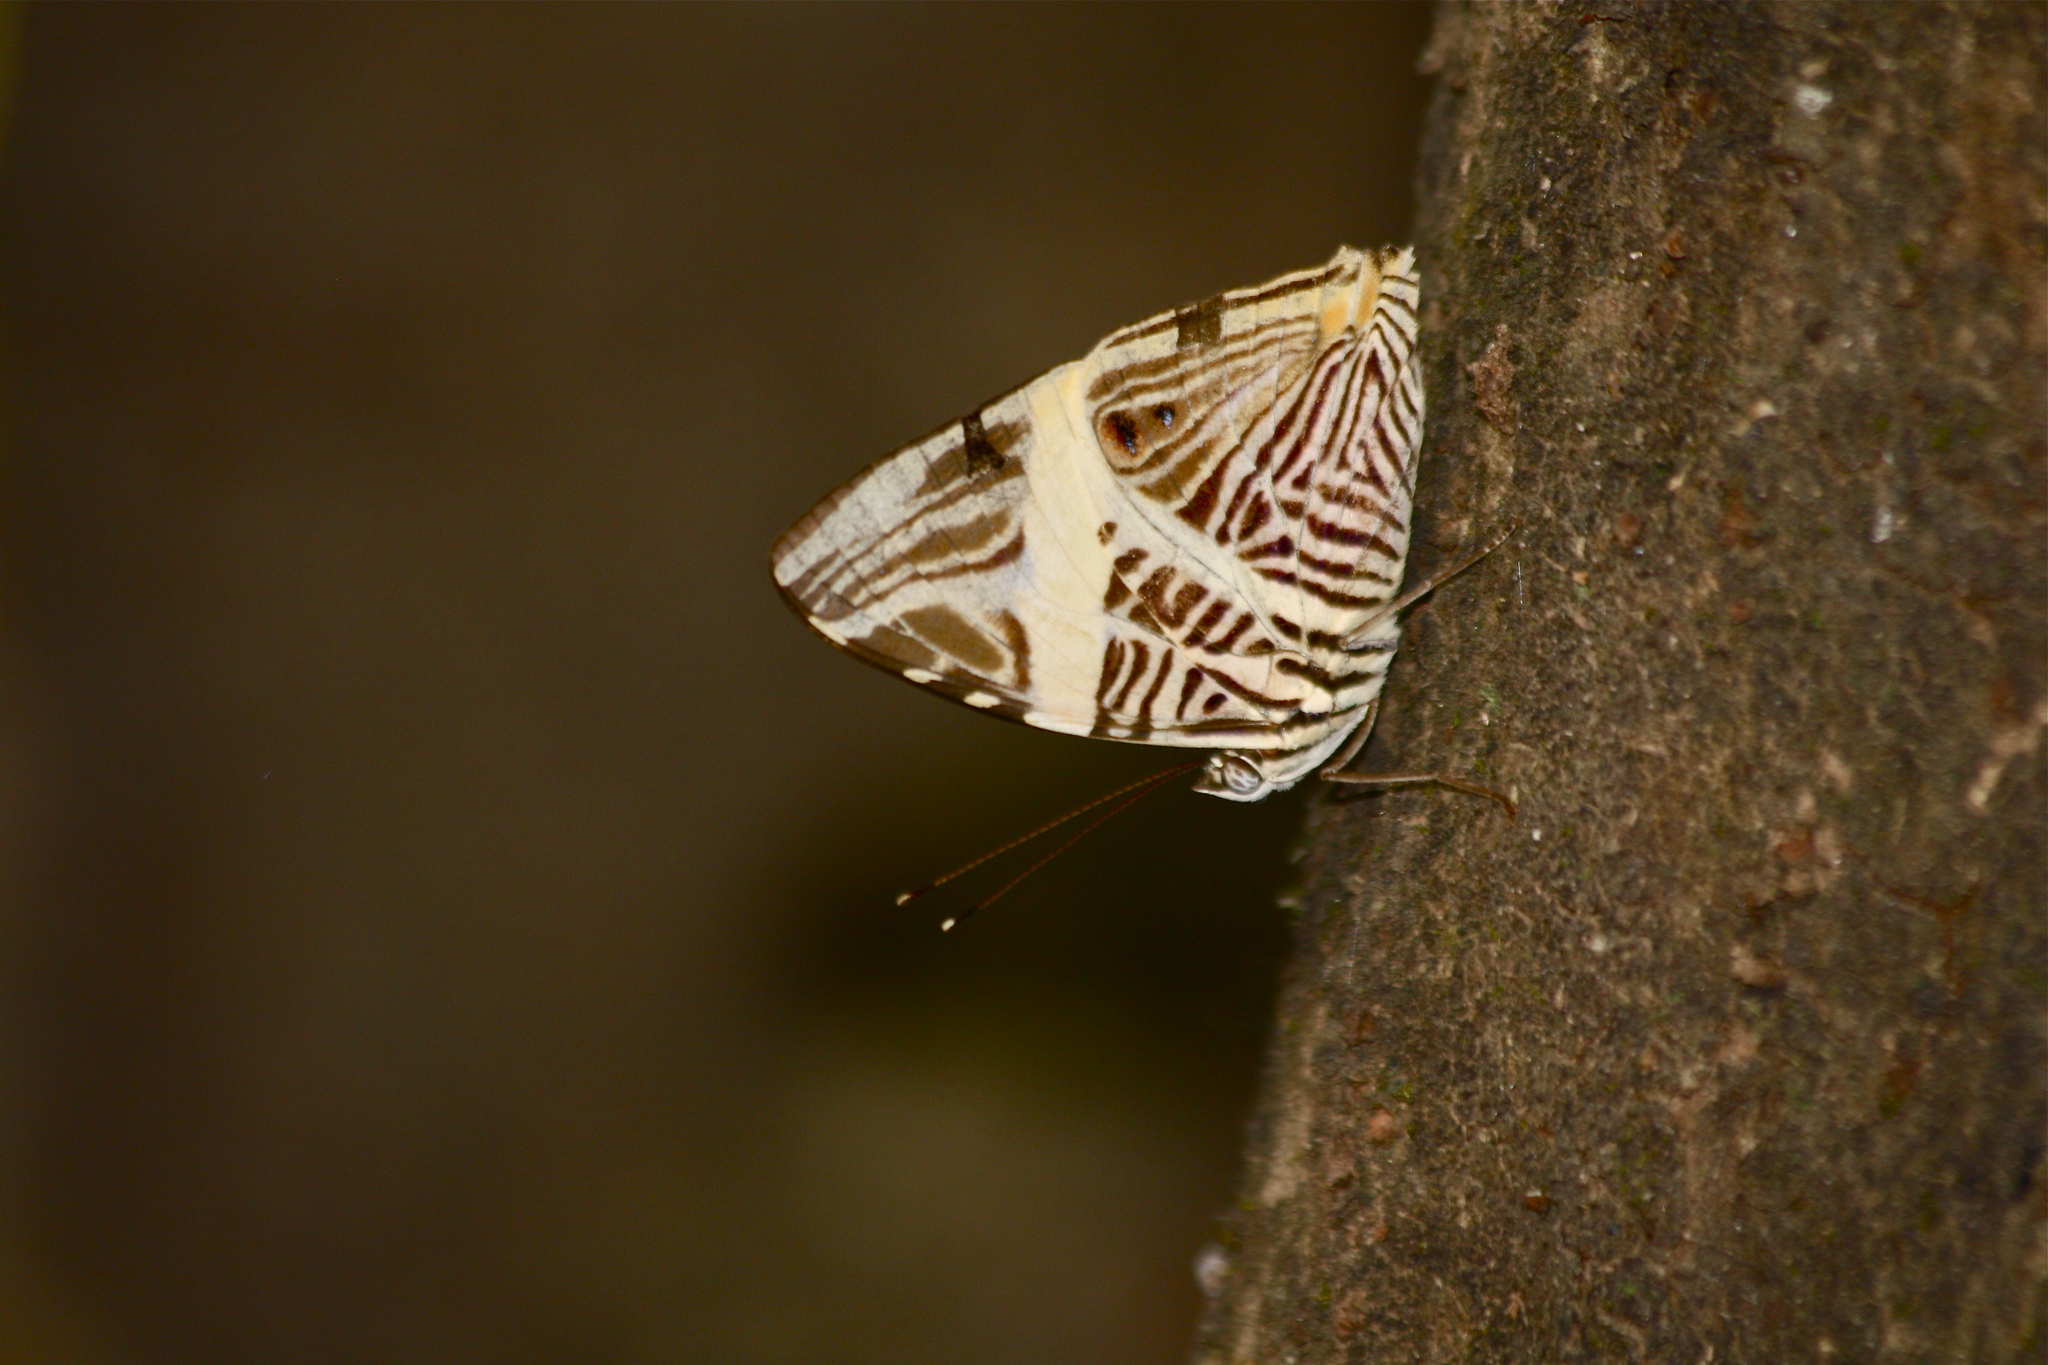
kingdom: Animalia
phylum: Arthropoda
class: Insecta
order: Lepidoptera
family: Nymphalidae
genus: Colobura
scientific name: Colobura dirce
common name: Dirce beauty
